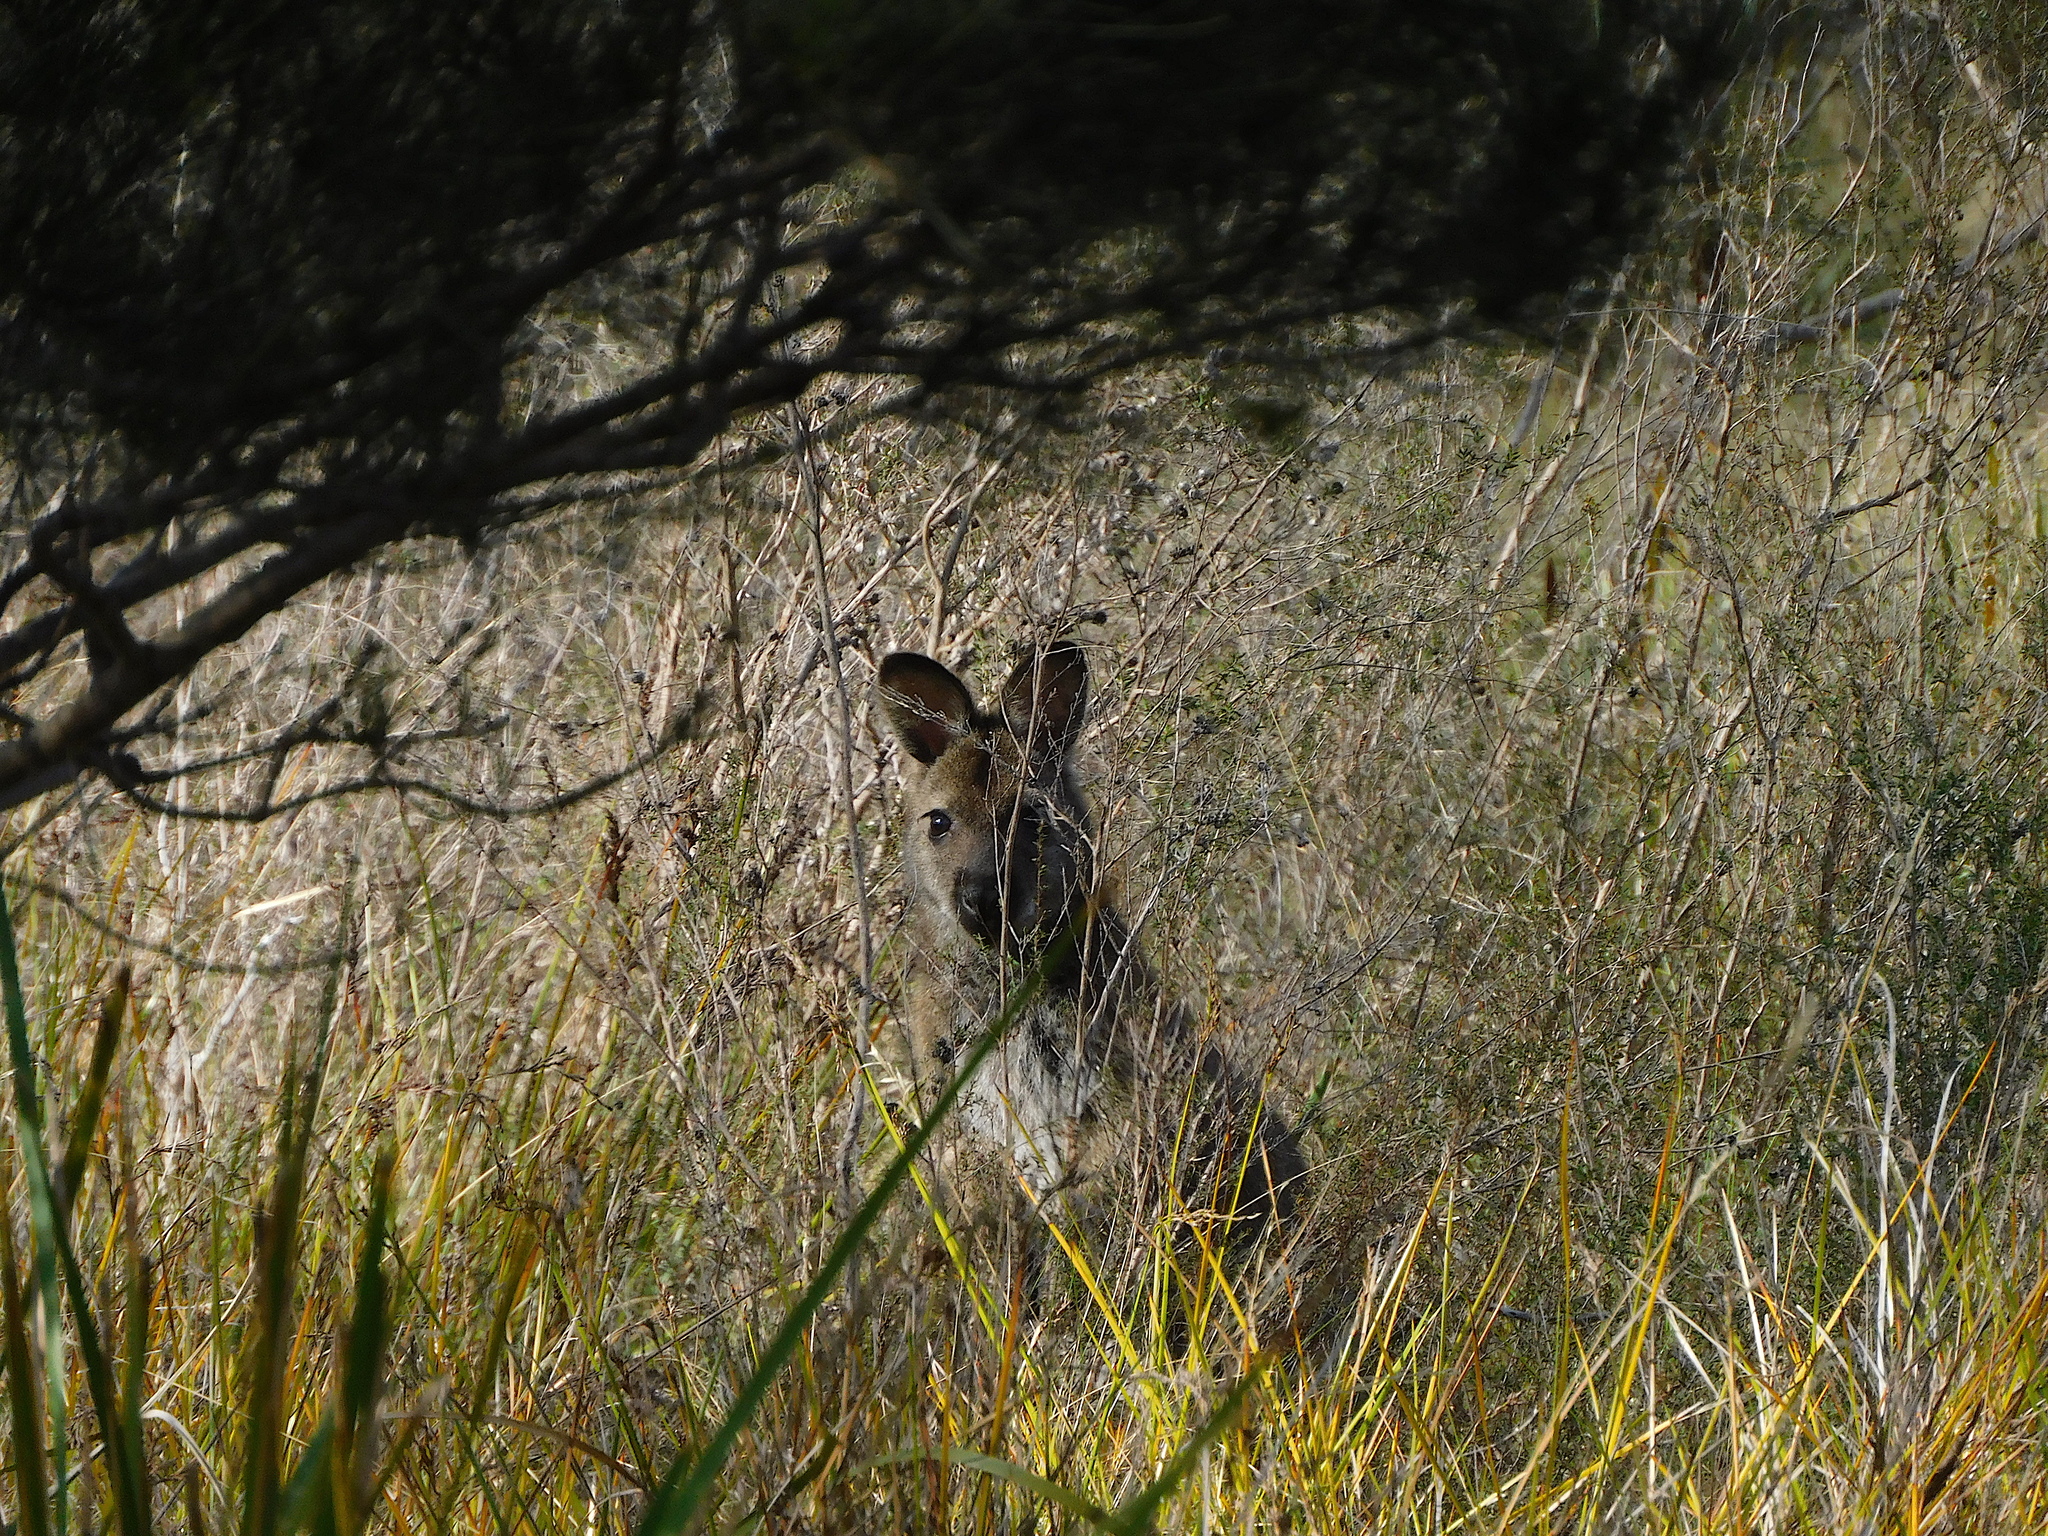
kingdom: Animalia
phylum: Chordata
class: Mammalia
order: Diprotodontia
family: Macropodidae
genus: Notamacropus
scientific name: Notamacropus rufogriseus
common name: Red-necked wallaby
